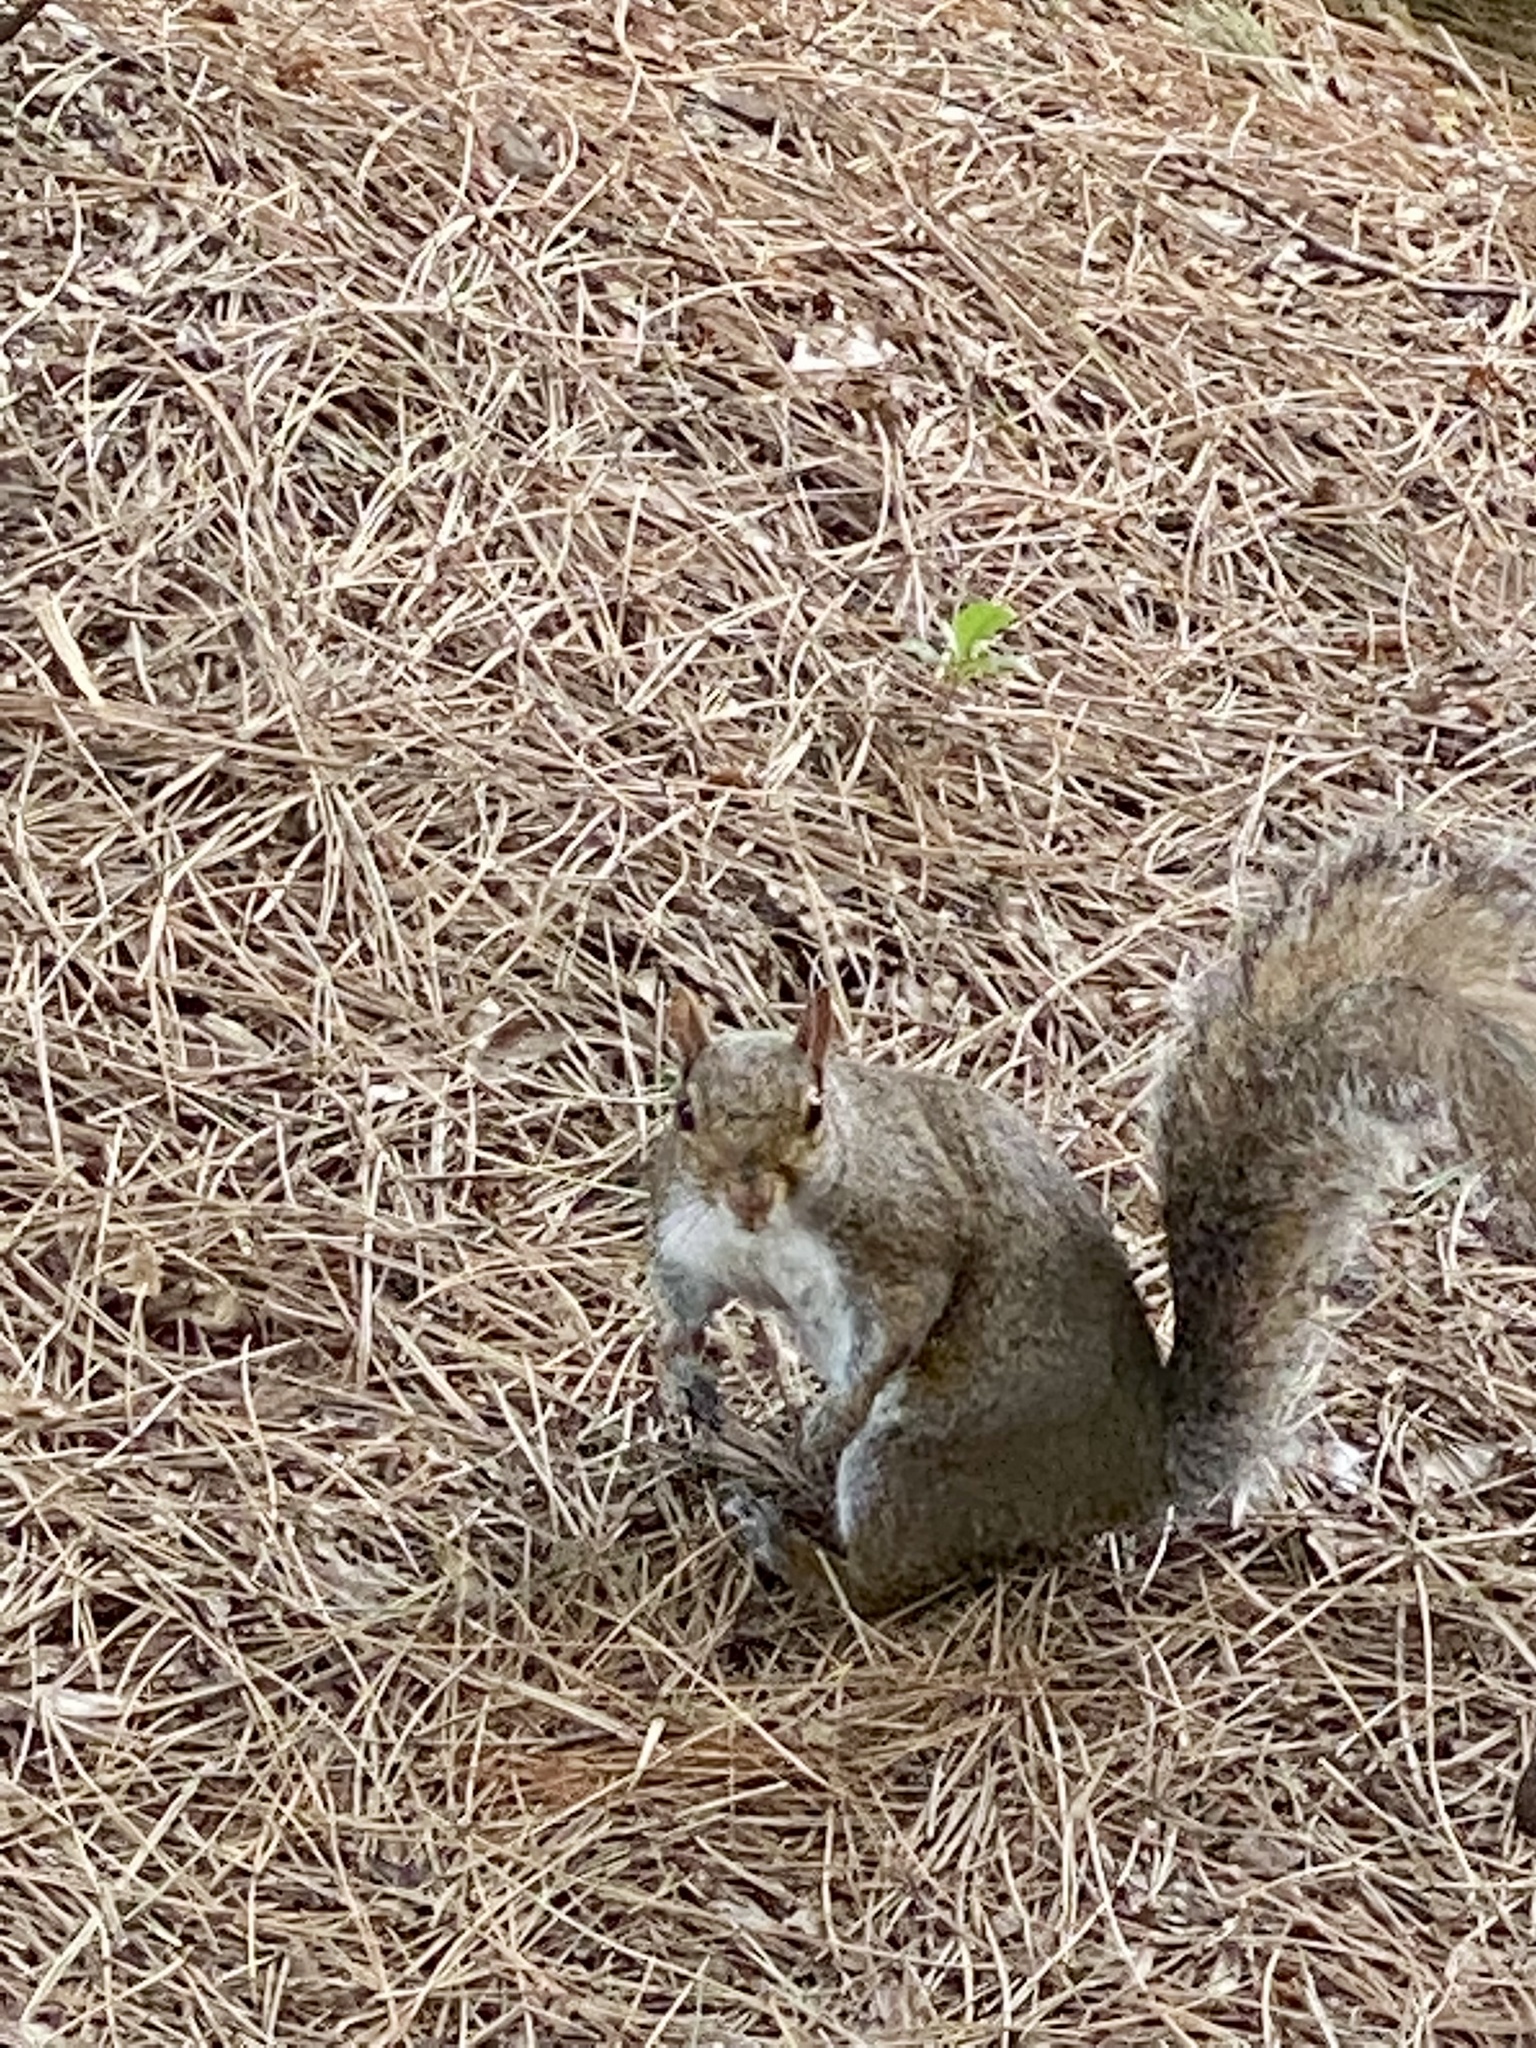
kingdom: Animalia
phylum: Chordata
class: Mammalia
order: Rodentia
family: Sciuridae
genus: Sciurus
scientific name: Sciurus carolinensis
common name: Eastern gray squirrel
